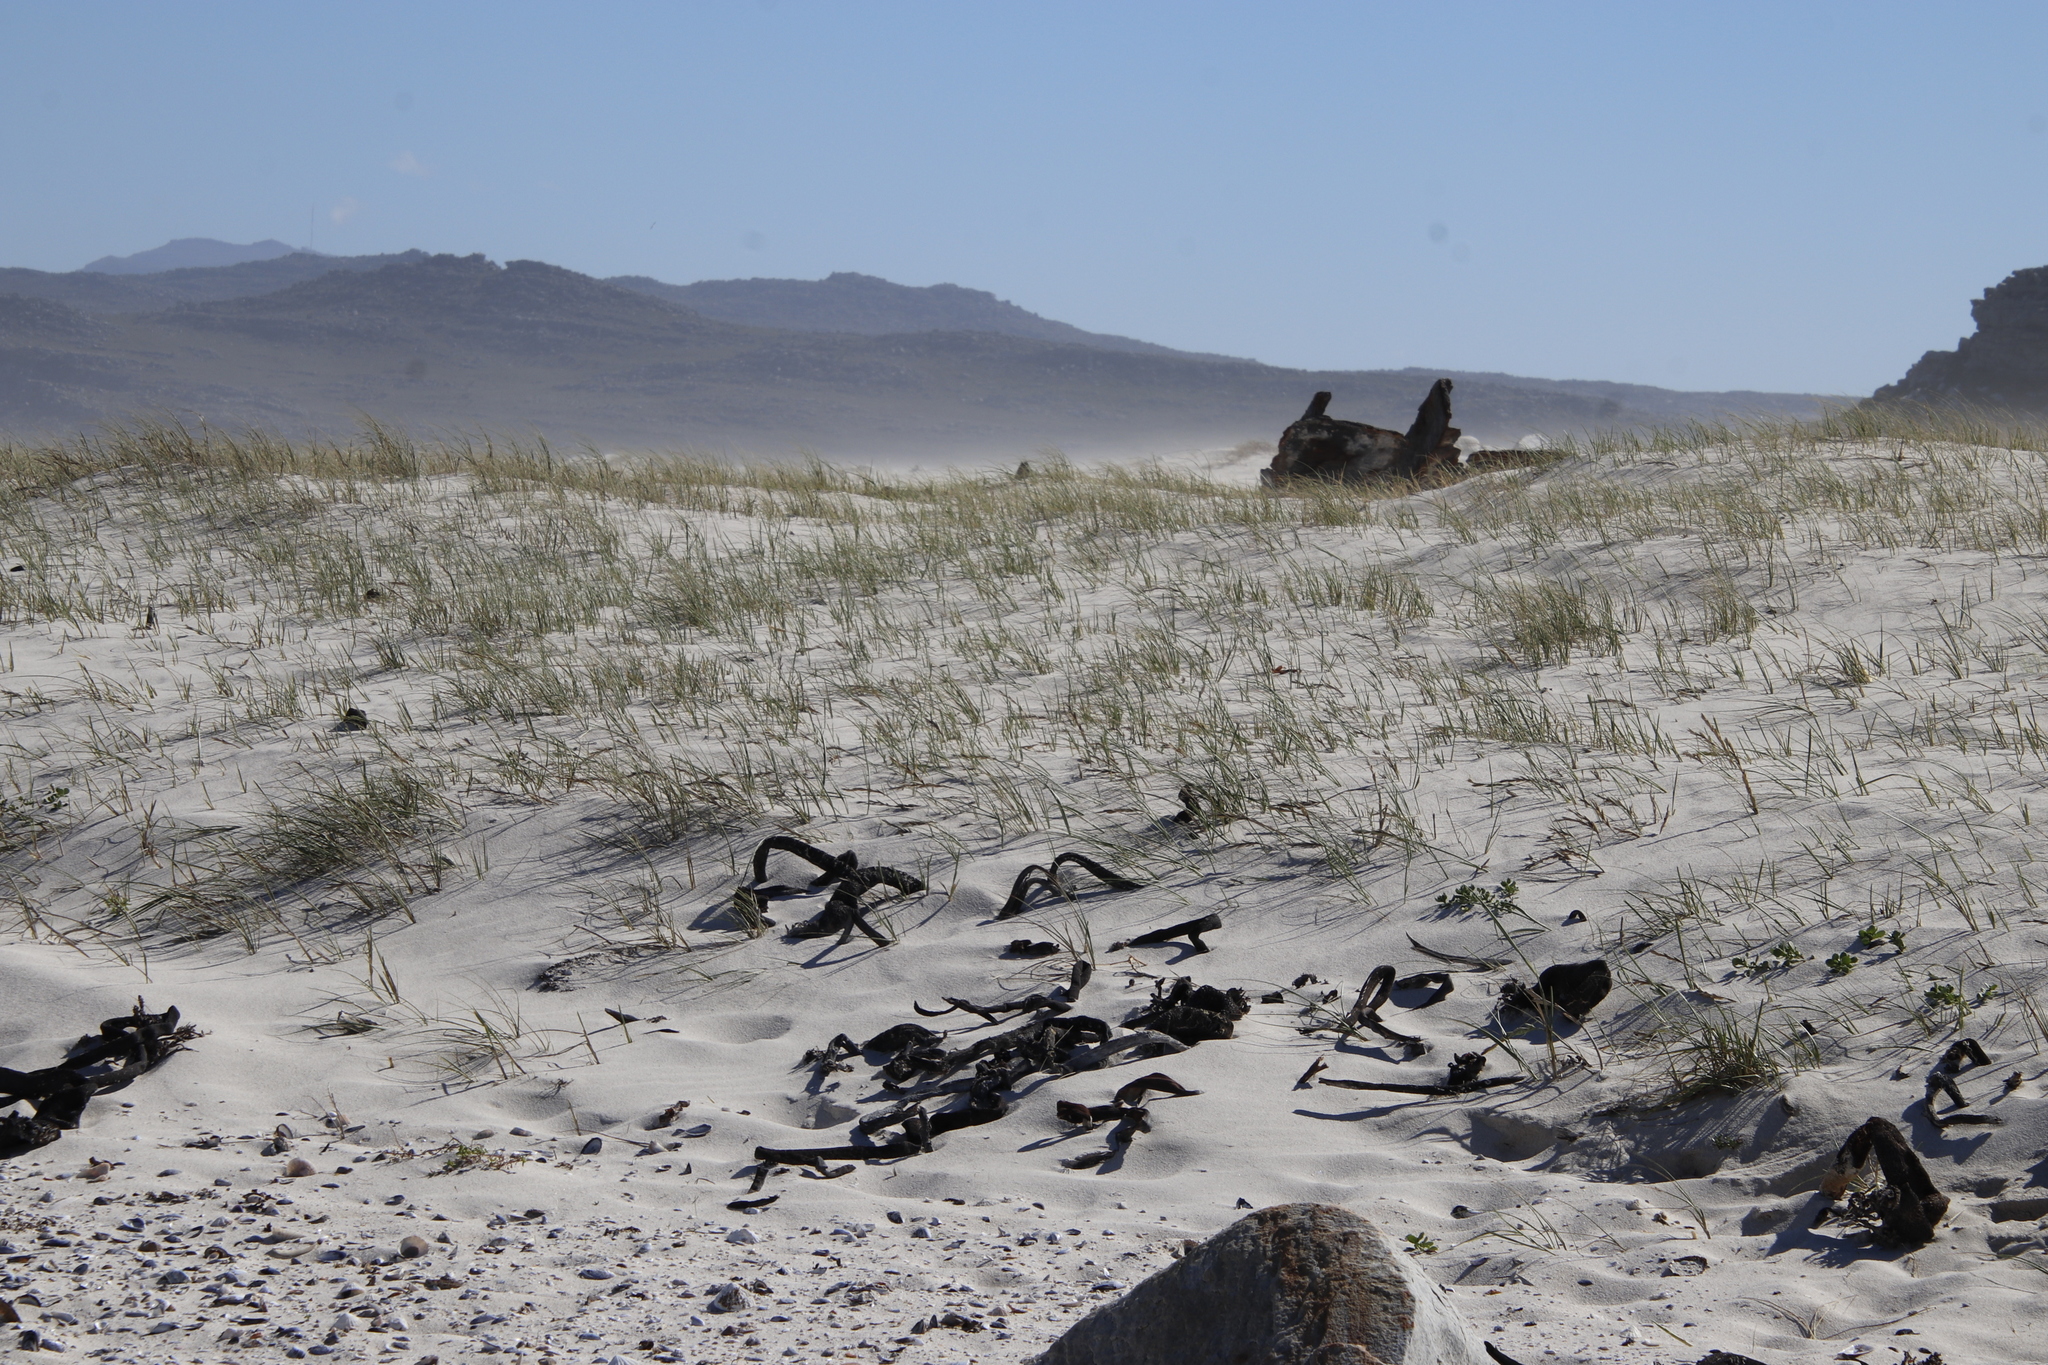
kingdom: Plantae
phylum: Tracheophyta
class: Liliopsida
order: Poales
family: Poaceae
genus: Thinopyrum
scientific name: Thinopyrum distichum
